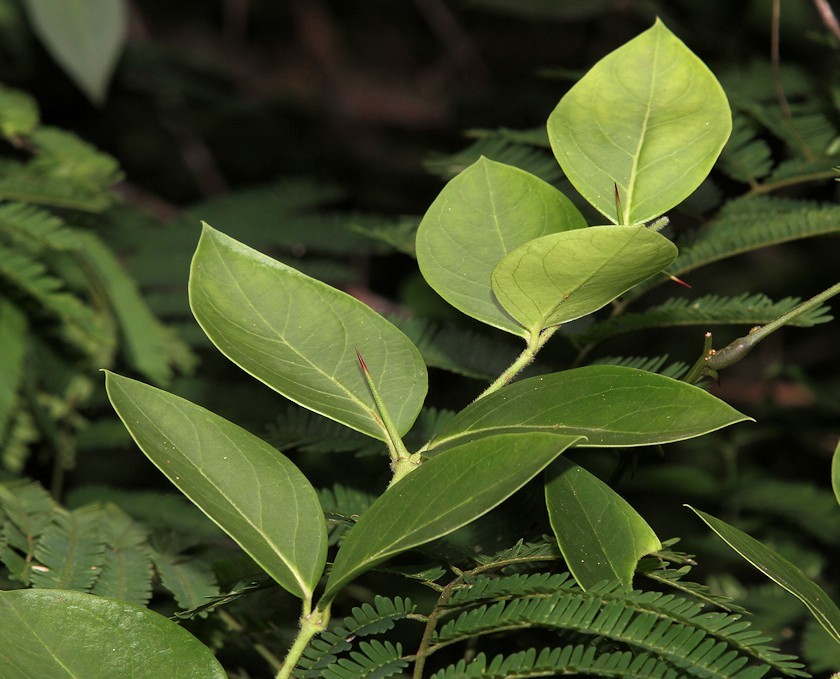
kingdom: Plantae
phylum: Tracheophyta
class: Magnoliopsida
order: Gentianales
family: Apocynaceae
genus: Carissa
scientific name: Carissa spinarum
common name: Egyptian carissa
